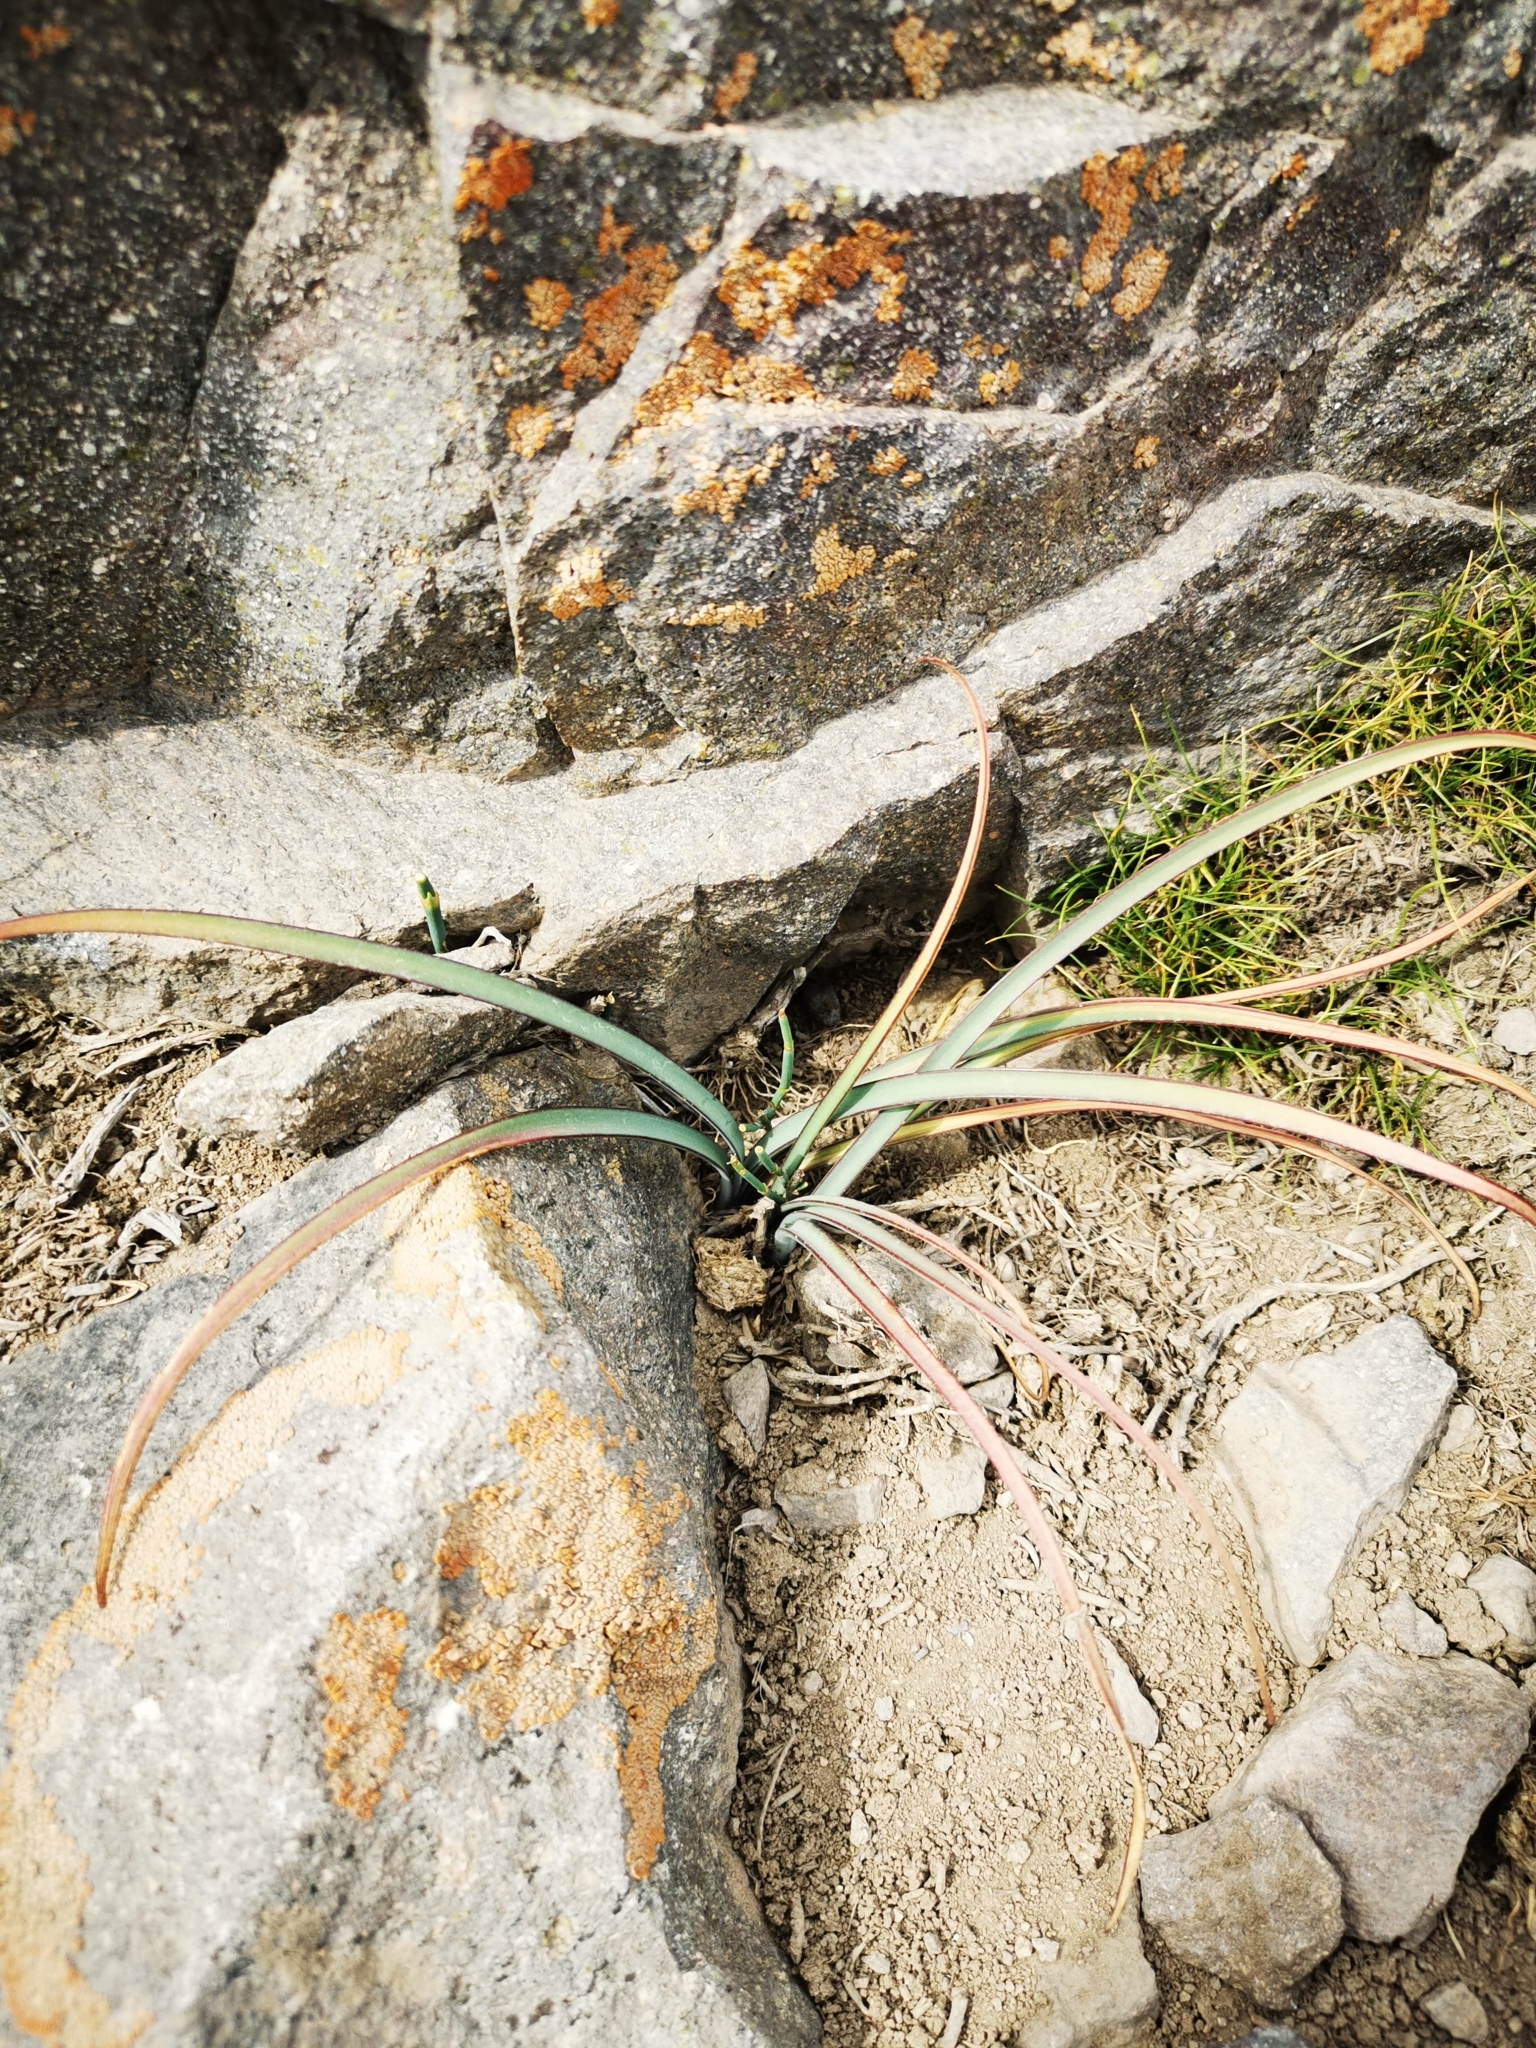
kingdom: Plantae
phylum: Tracheophyta
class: Liliopsida
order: Asparagales
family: Amaryllidaceae
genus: Rhodolirium
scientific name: Rhodolirium montanum
